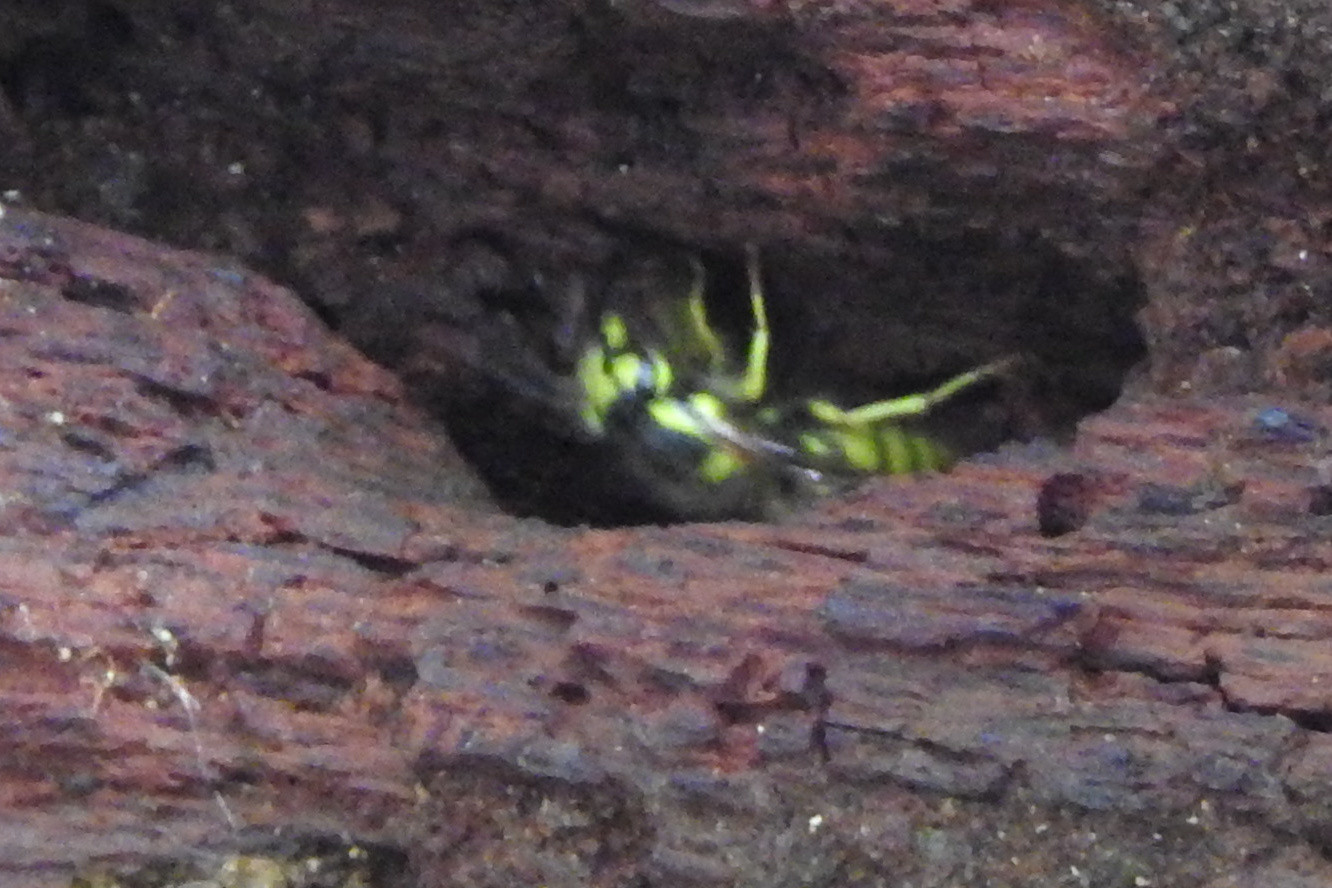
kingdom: Animalia
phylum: Arthropoda
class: Insecta
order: Hymenoptera
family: Vespidae
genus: Vespula
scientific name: Vespula flavopilosa
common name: Downy yellowjacket
